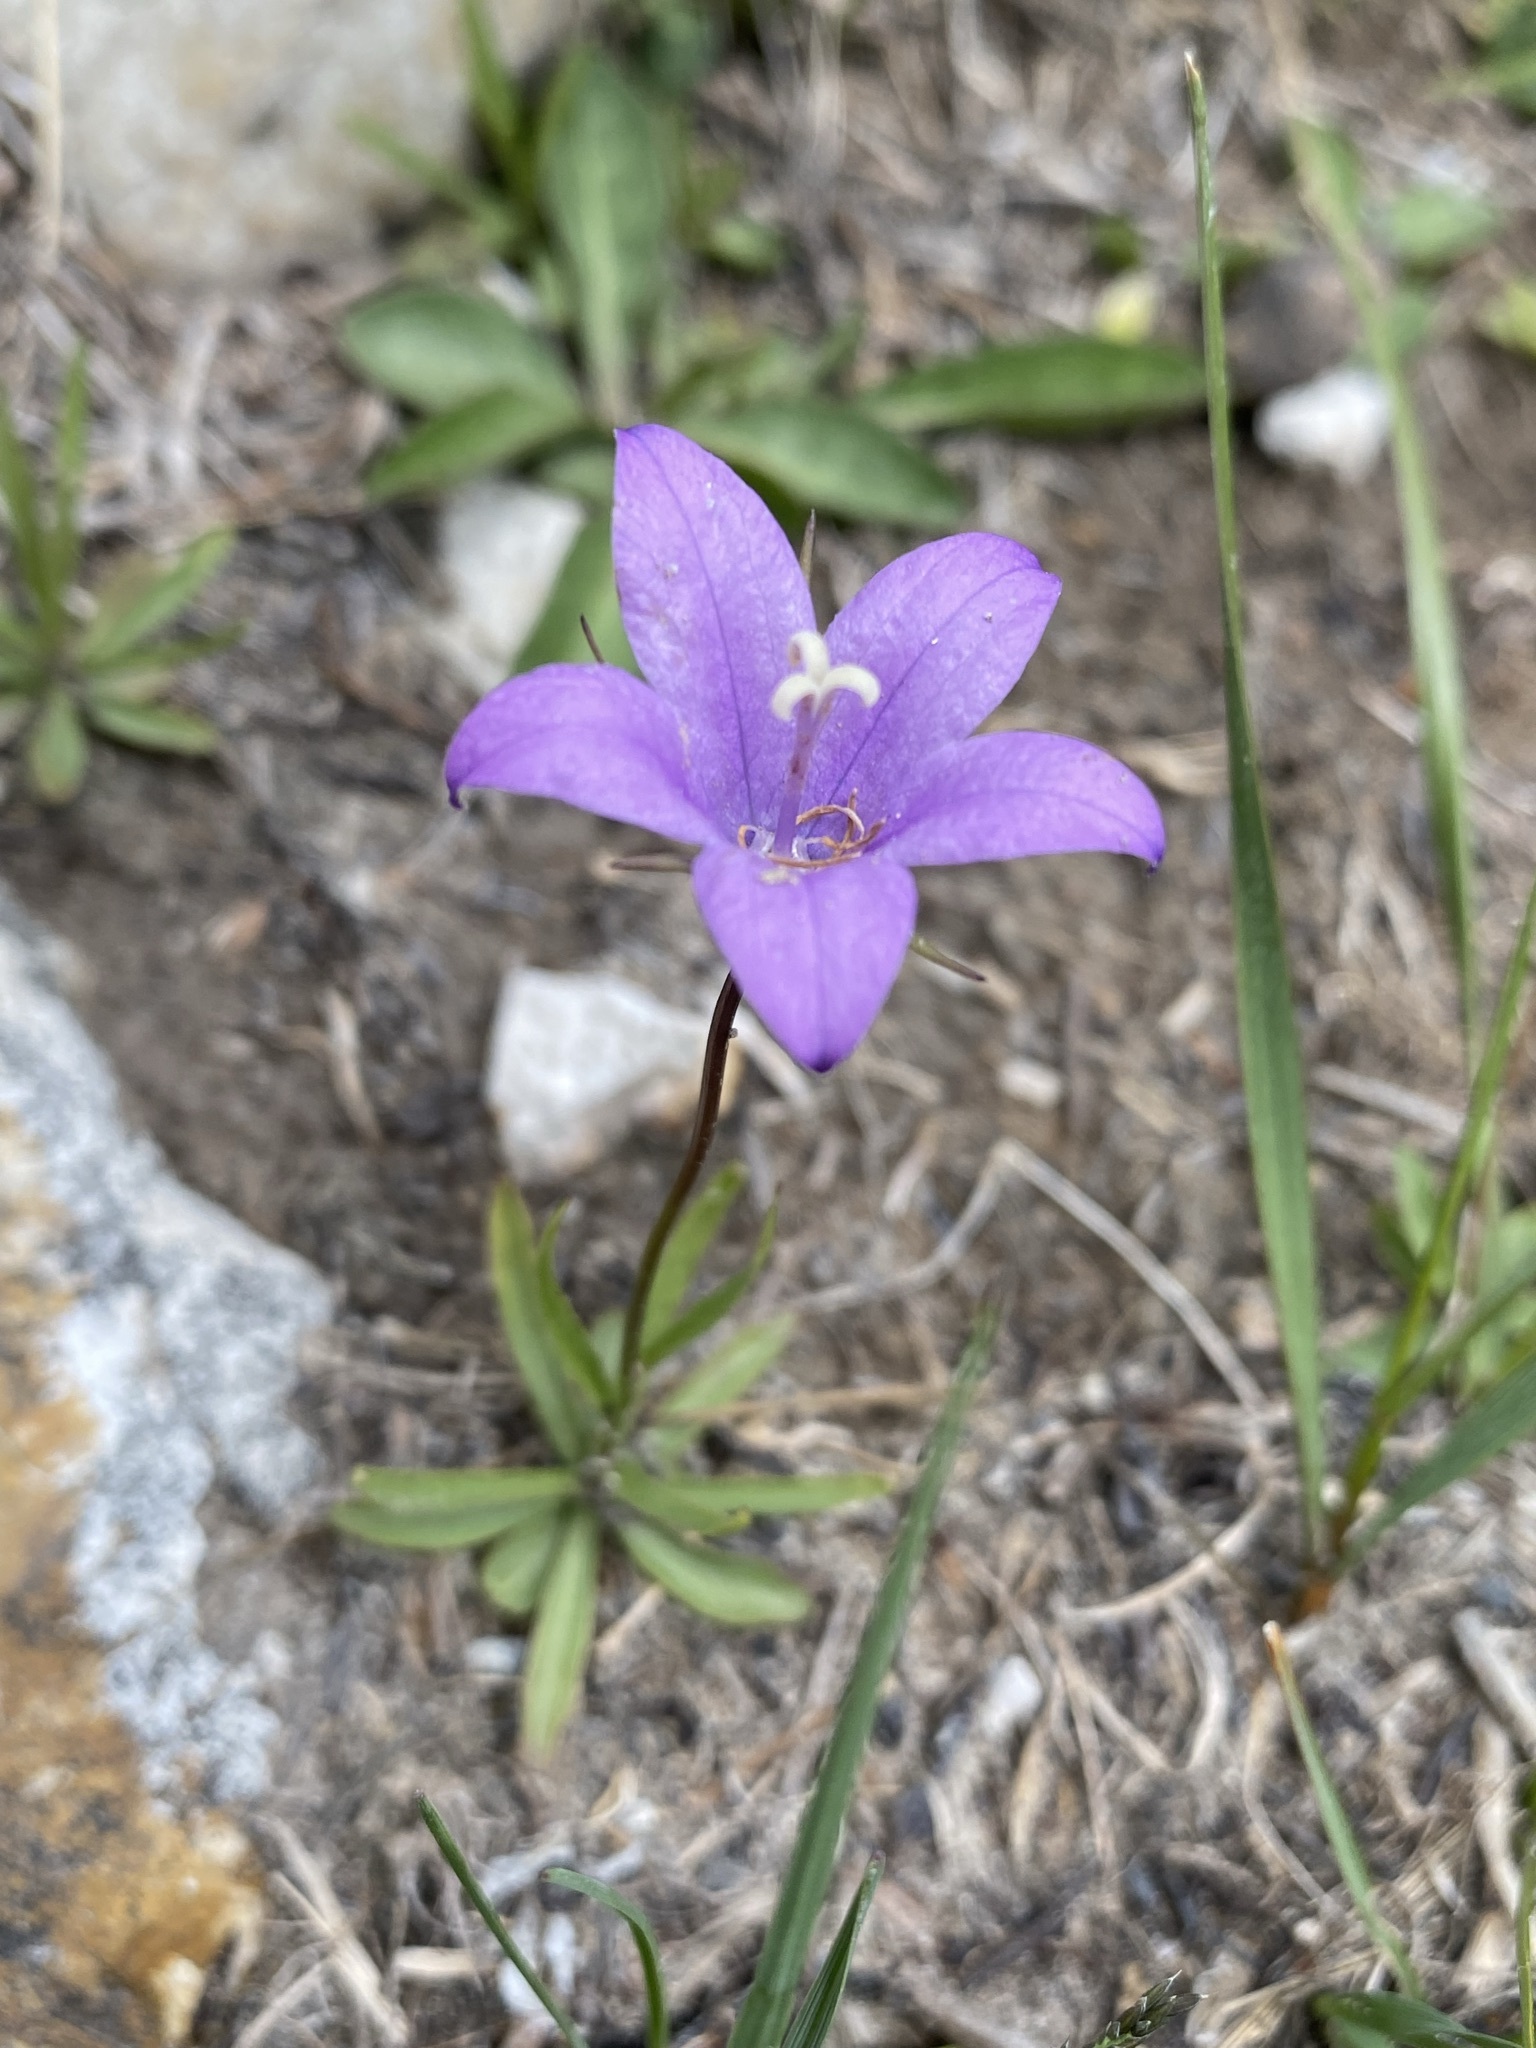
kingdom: Plantae
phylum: Tracheophyta
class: Magnoliopsida
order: Asterales
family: Campanulaceae
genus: Campanula
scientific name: Campanula parryi
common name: Rocky mountain bellflower
